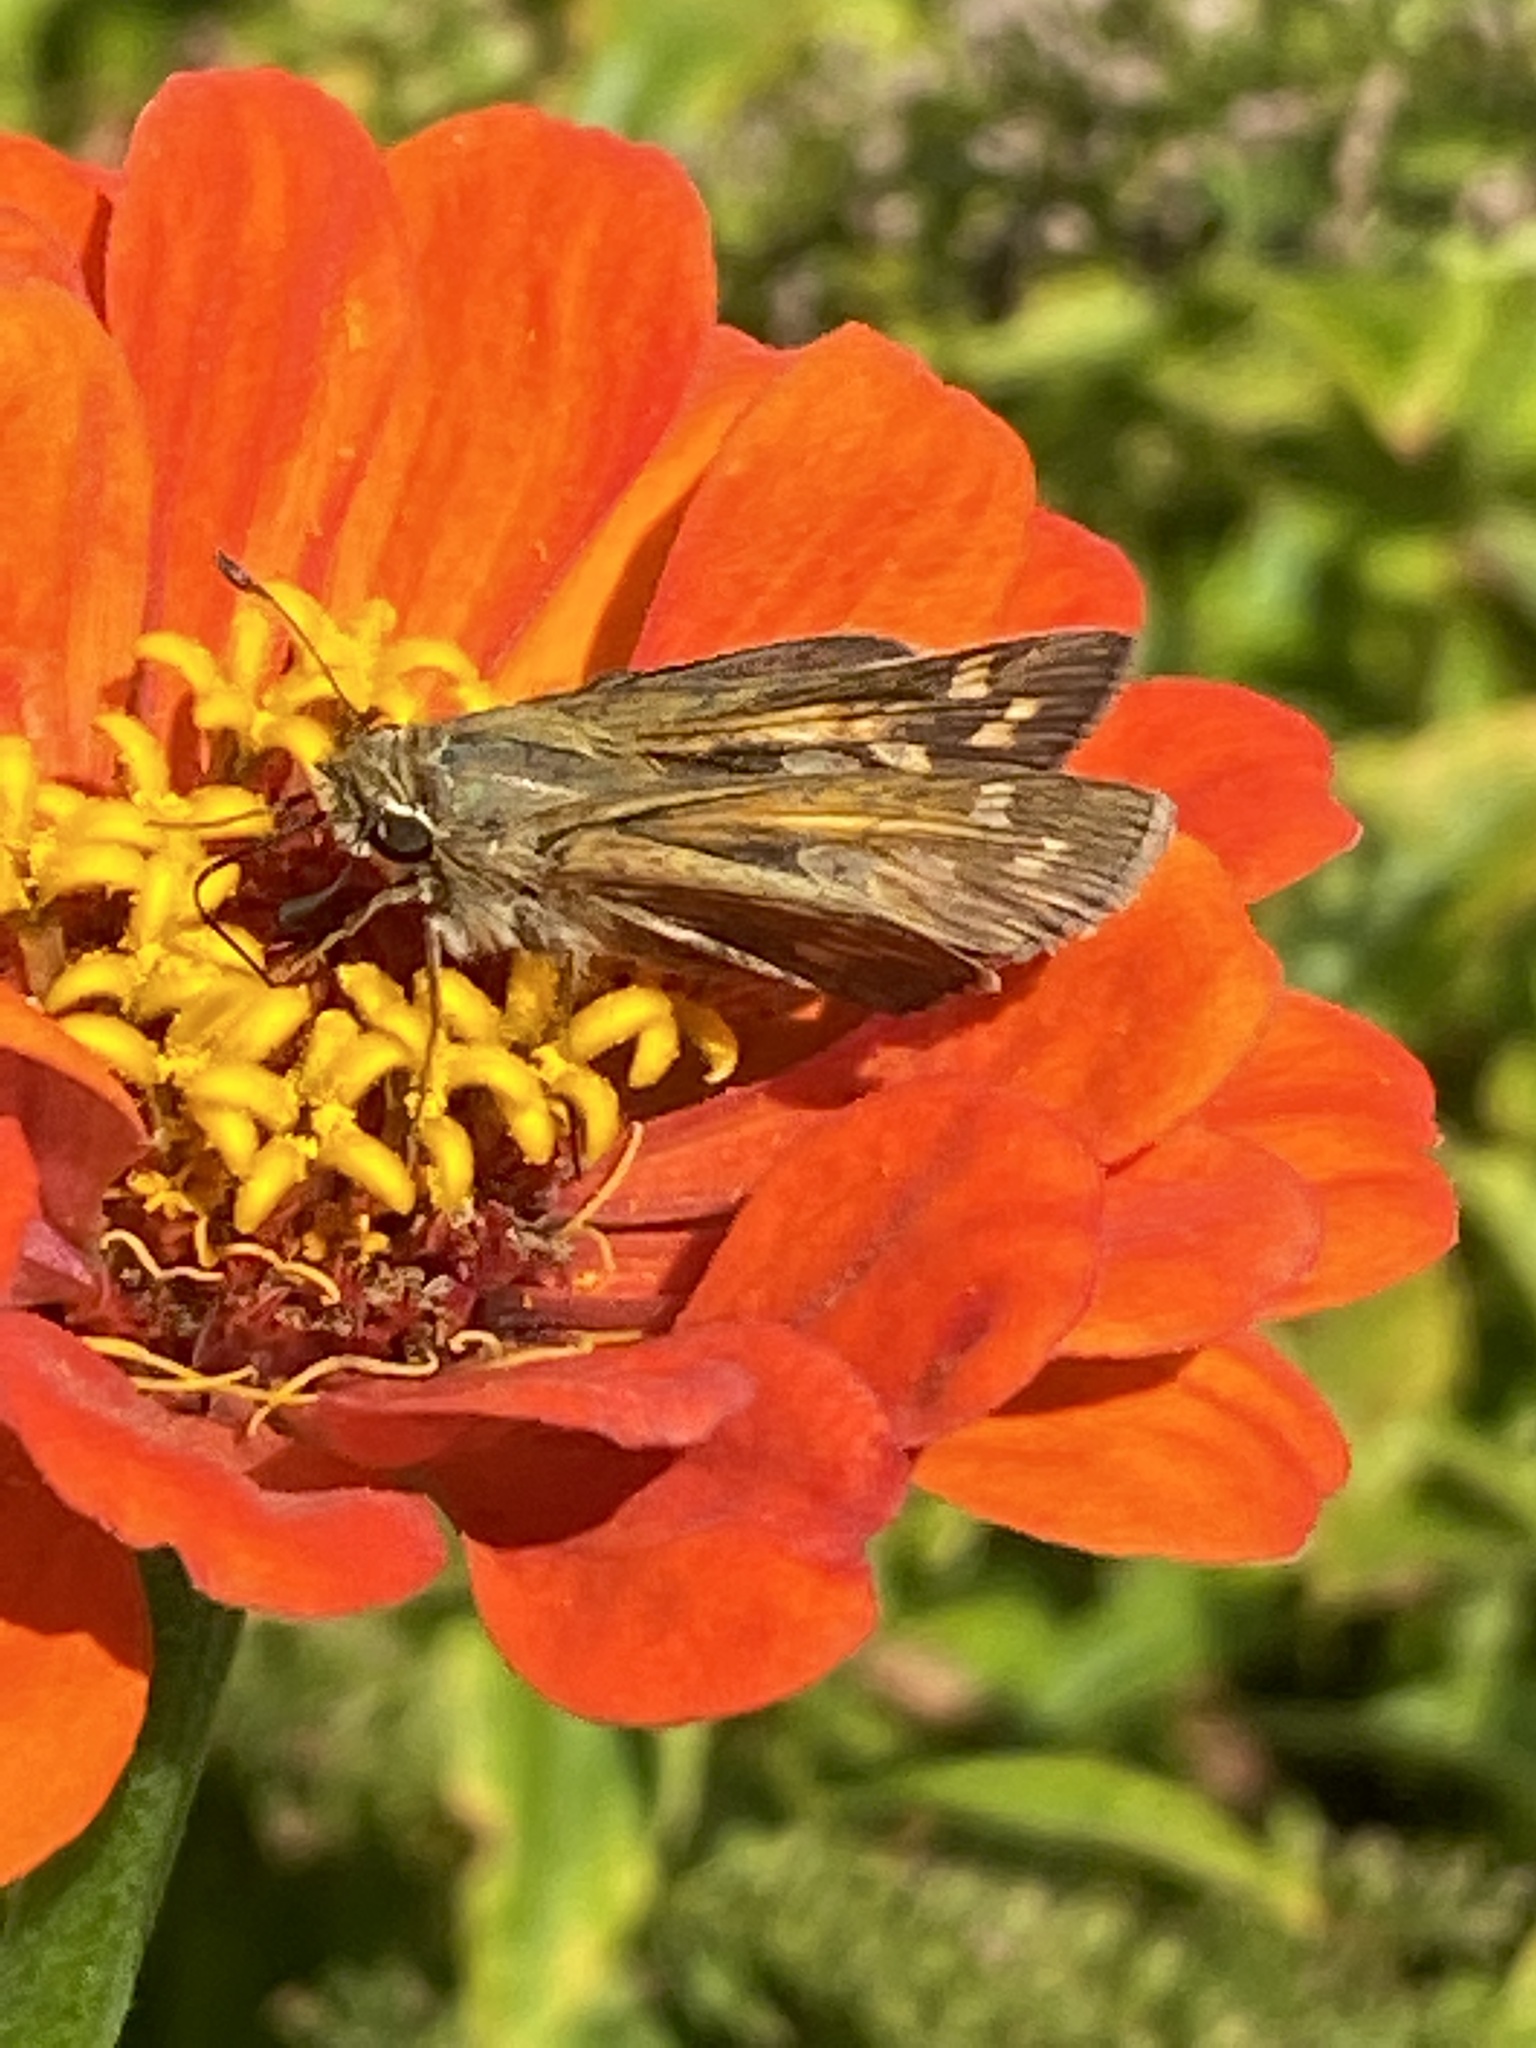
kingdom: Animalia
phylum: Arthropoda
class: Insecta
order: Lepidoptera
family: Hesperiidae
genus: Atalopedes
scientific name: Atalopedes
